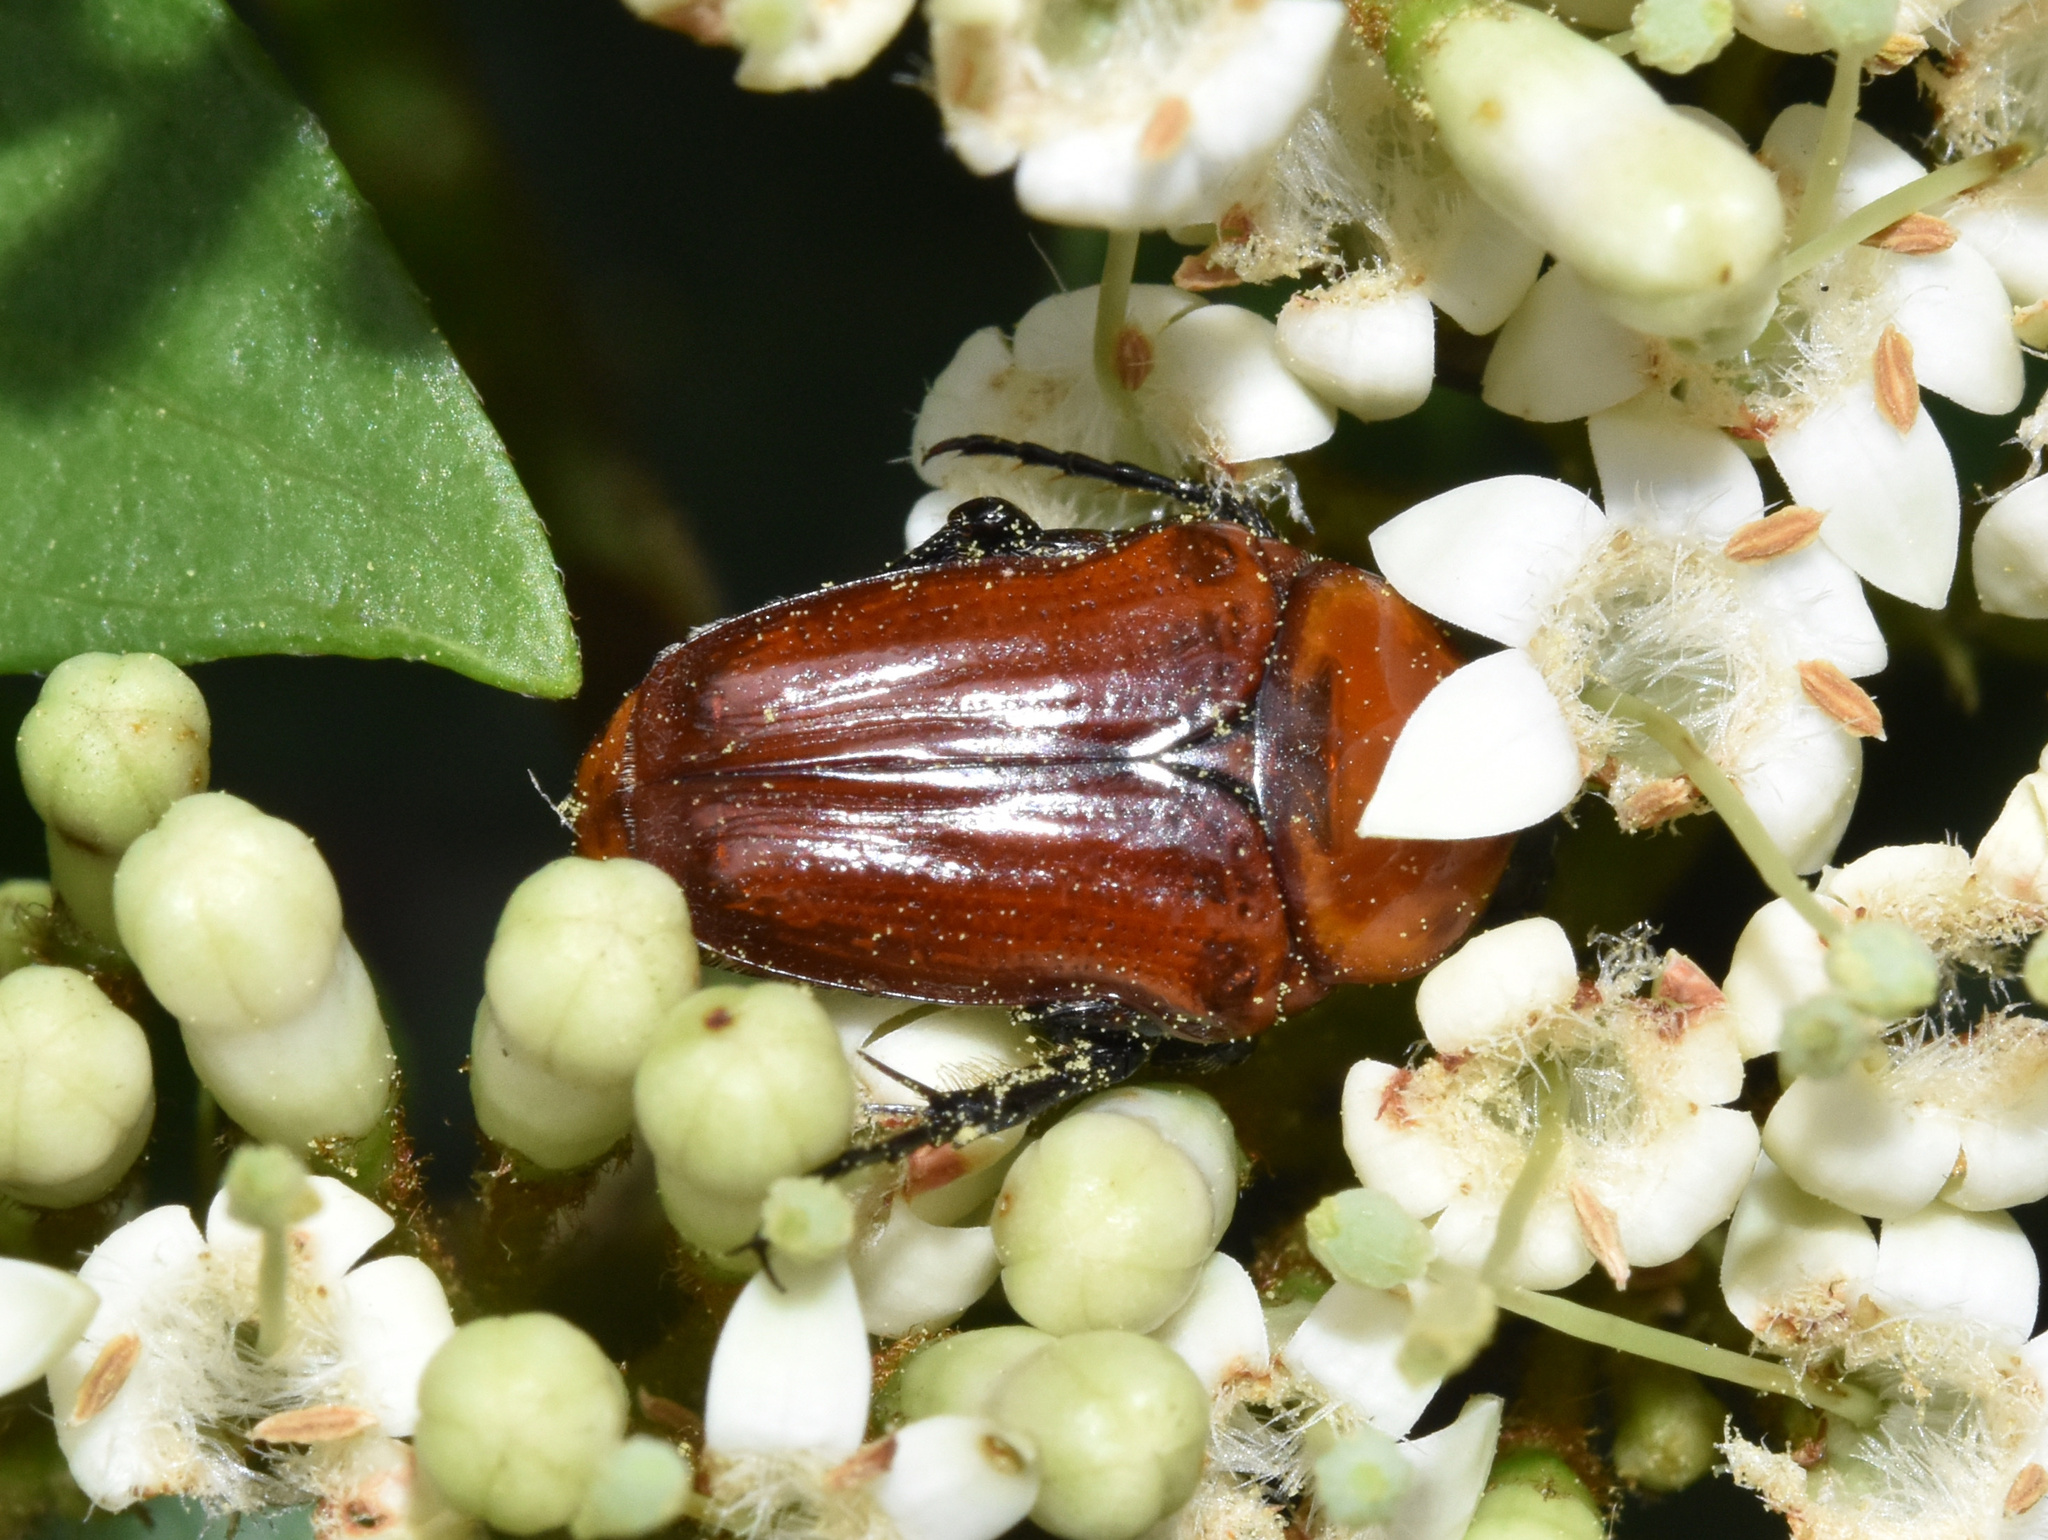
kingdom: Animalia
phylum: Arthropoda
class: Insecta
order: Coleoptera
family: Scarabaeidae
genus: Leucocelis
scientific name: Leucocelis rubra
